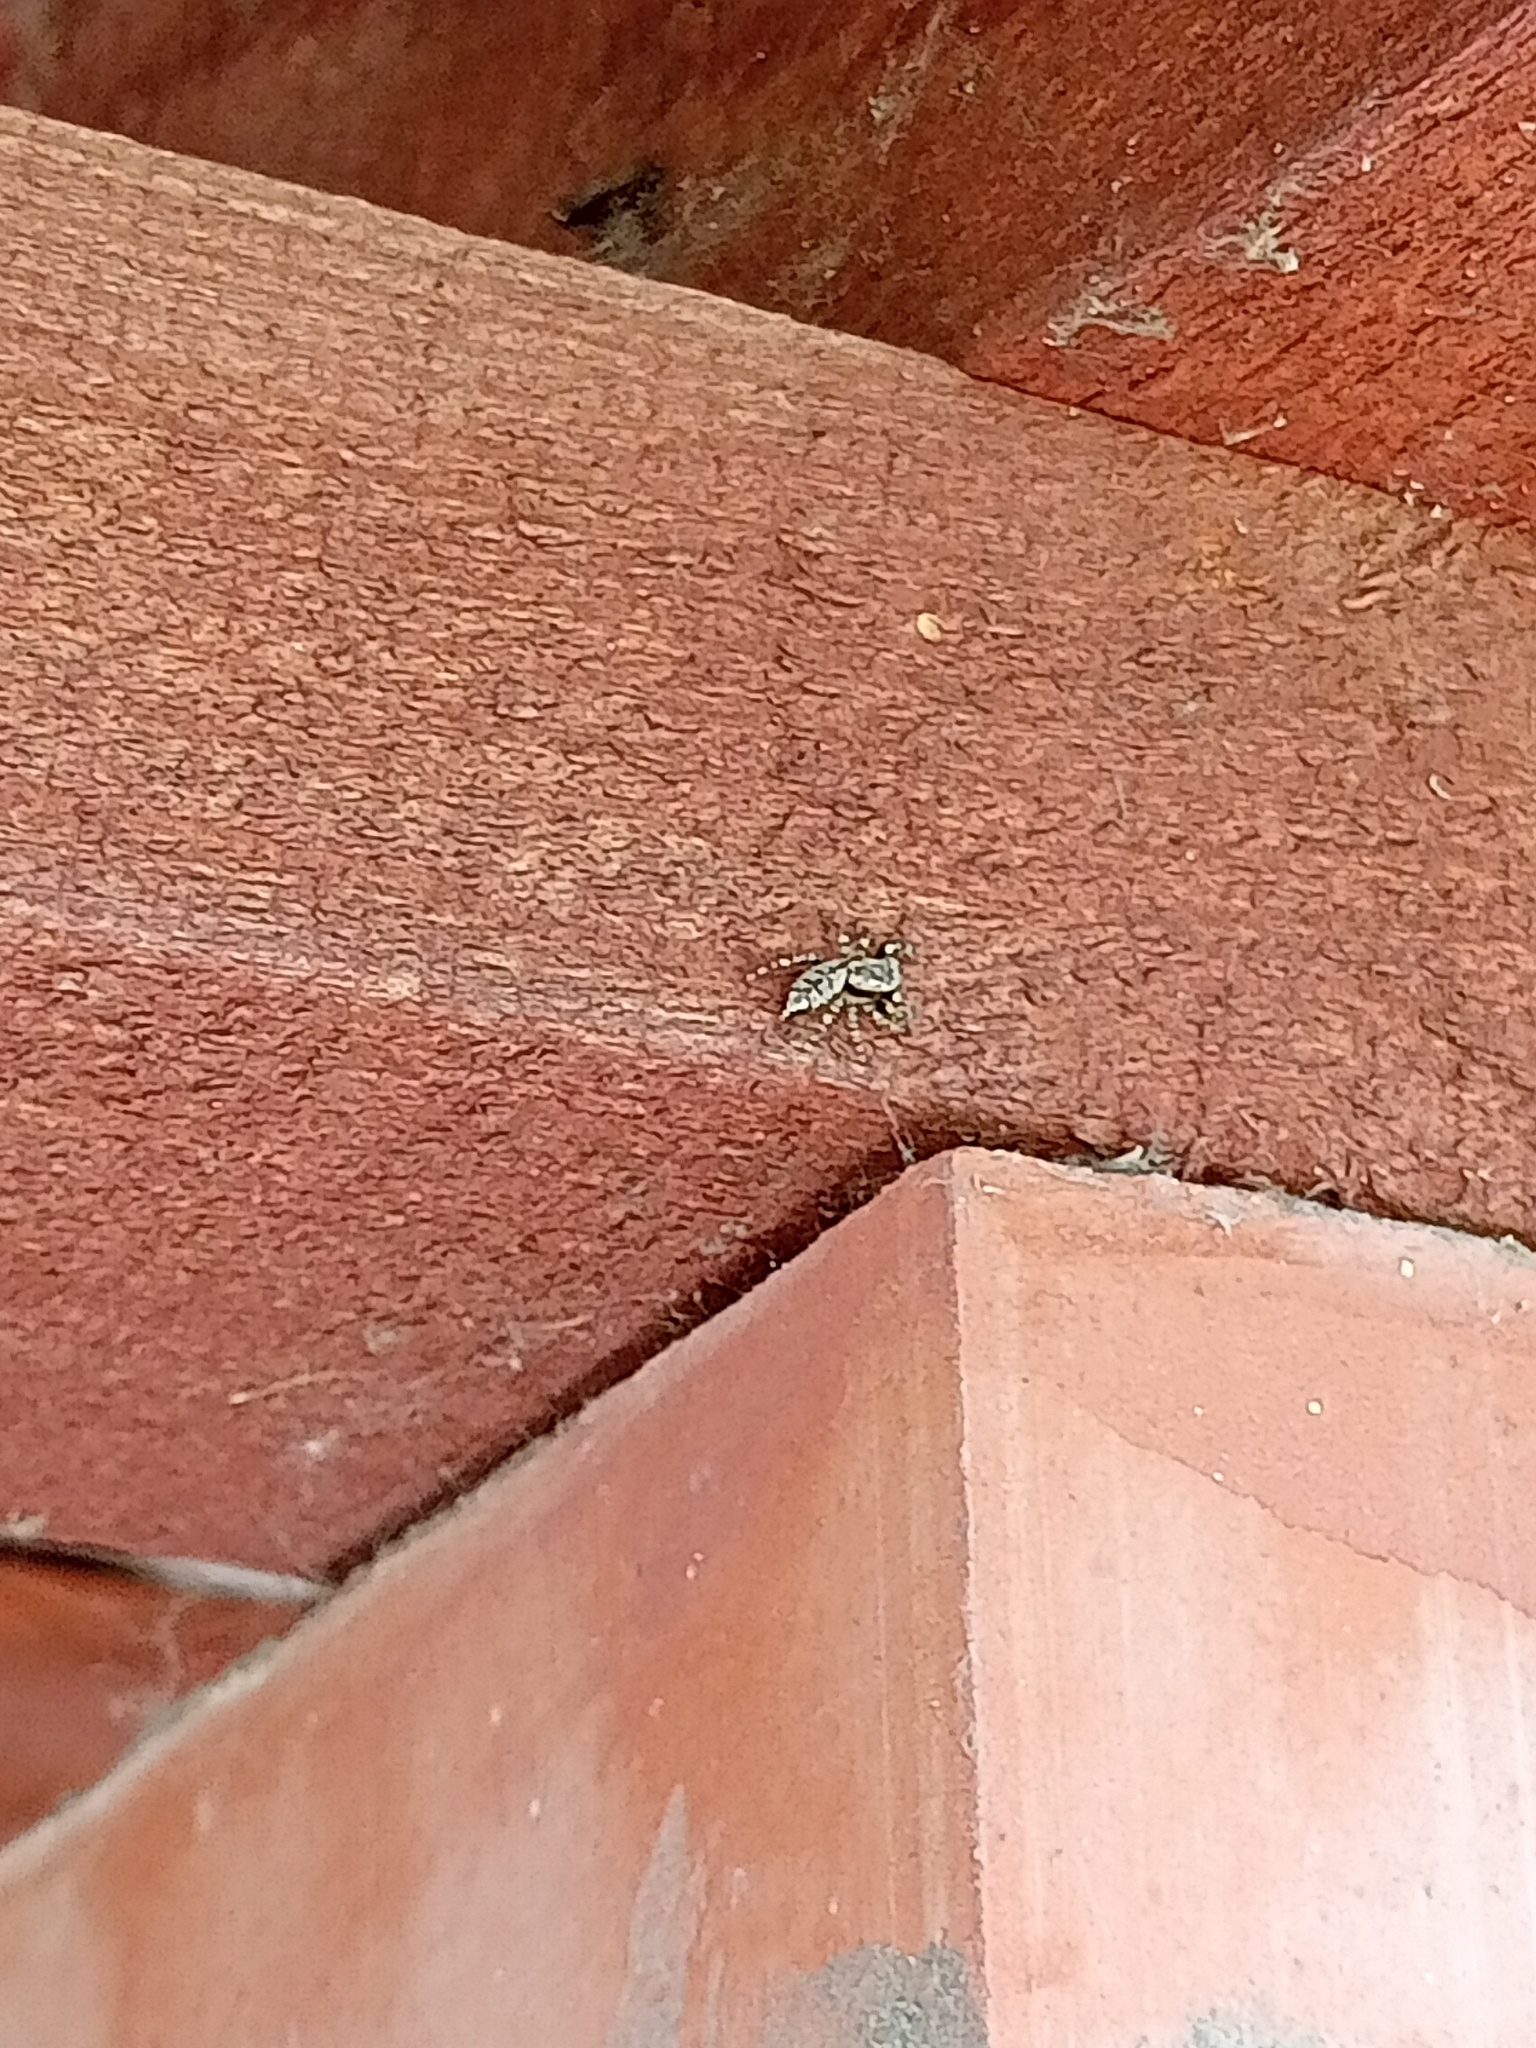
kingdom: Animalia
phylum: Arthropoda
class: Arachnida
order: Araneae
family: Salticidae
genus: Marpissa
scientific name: Marpissa muscosa
